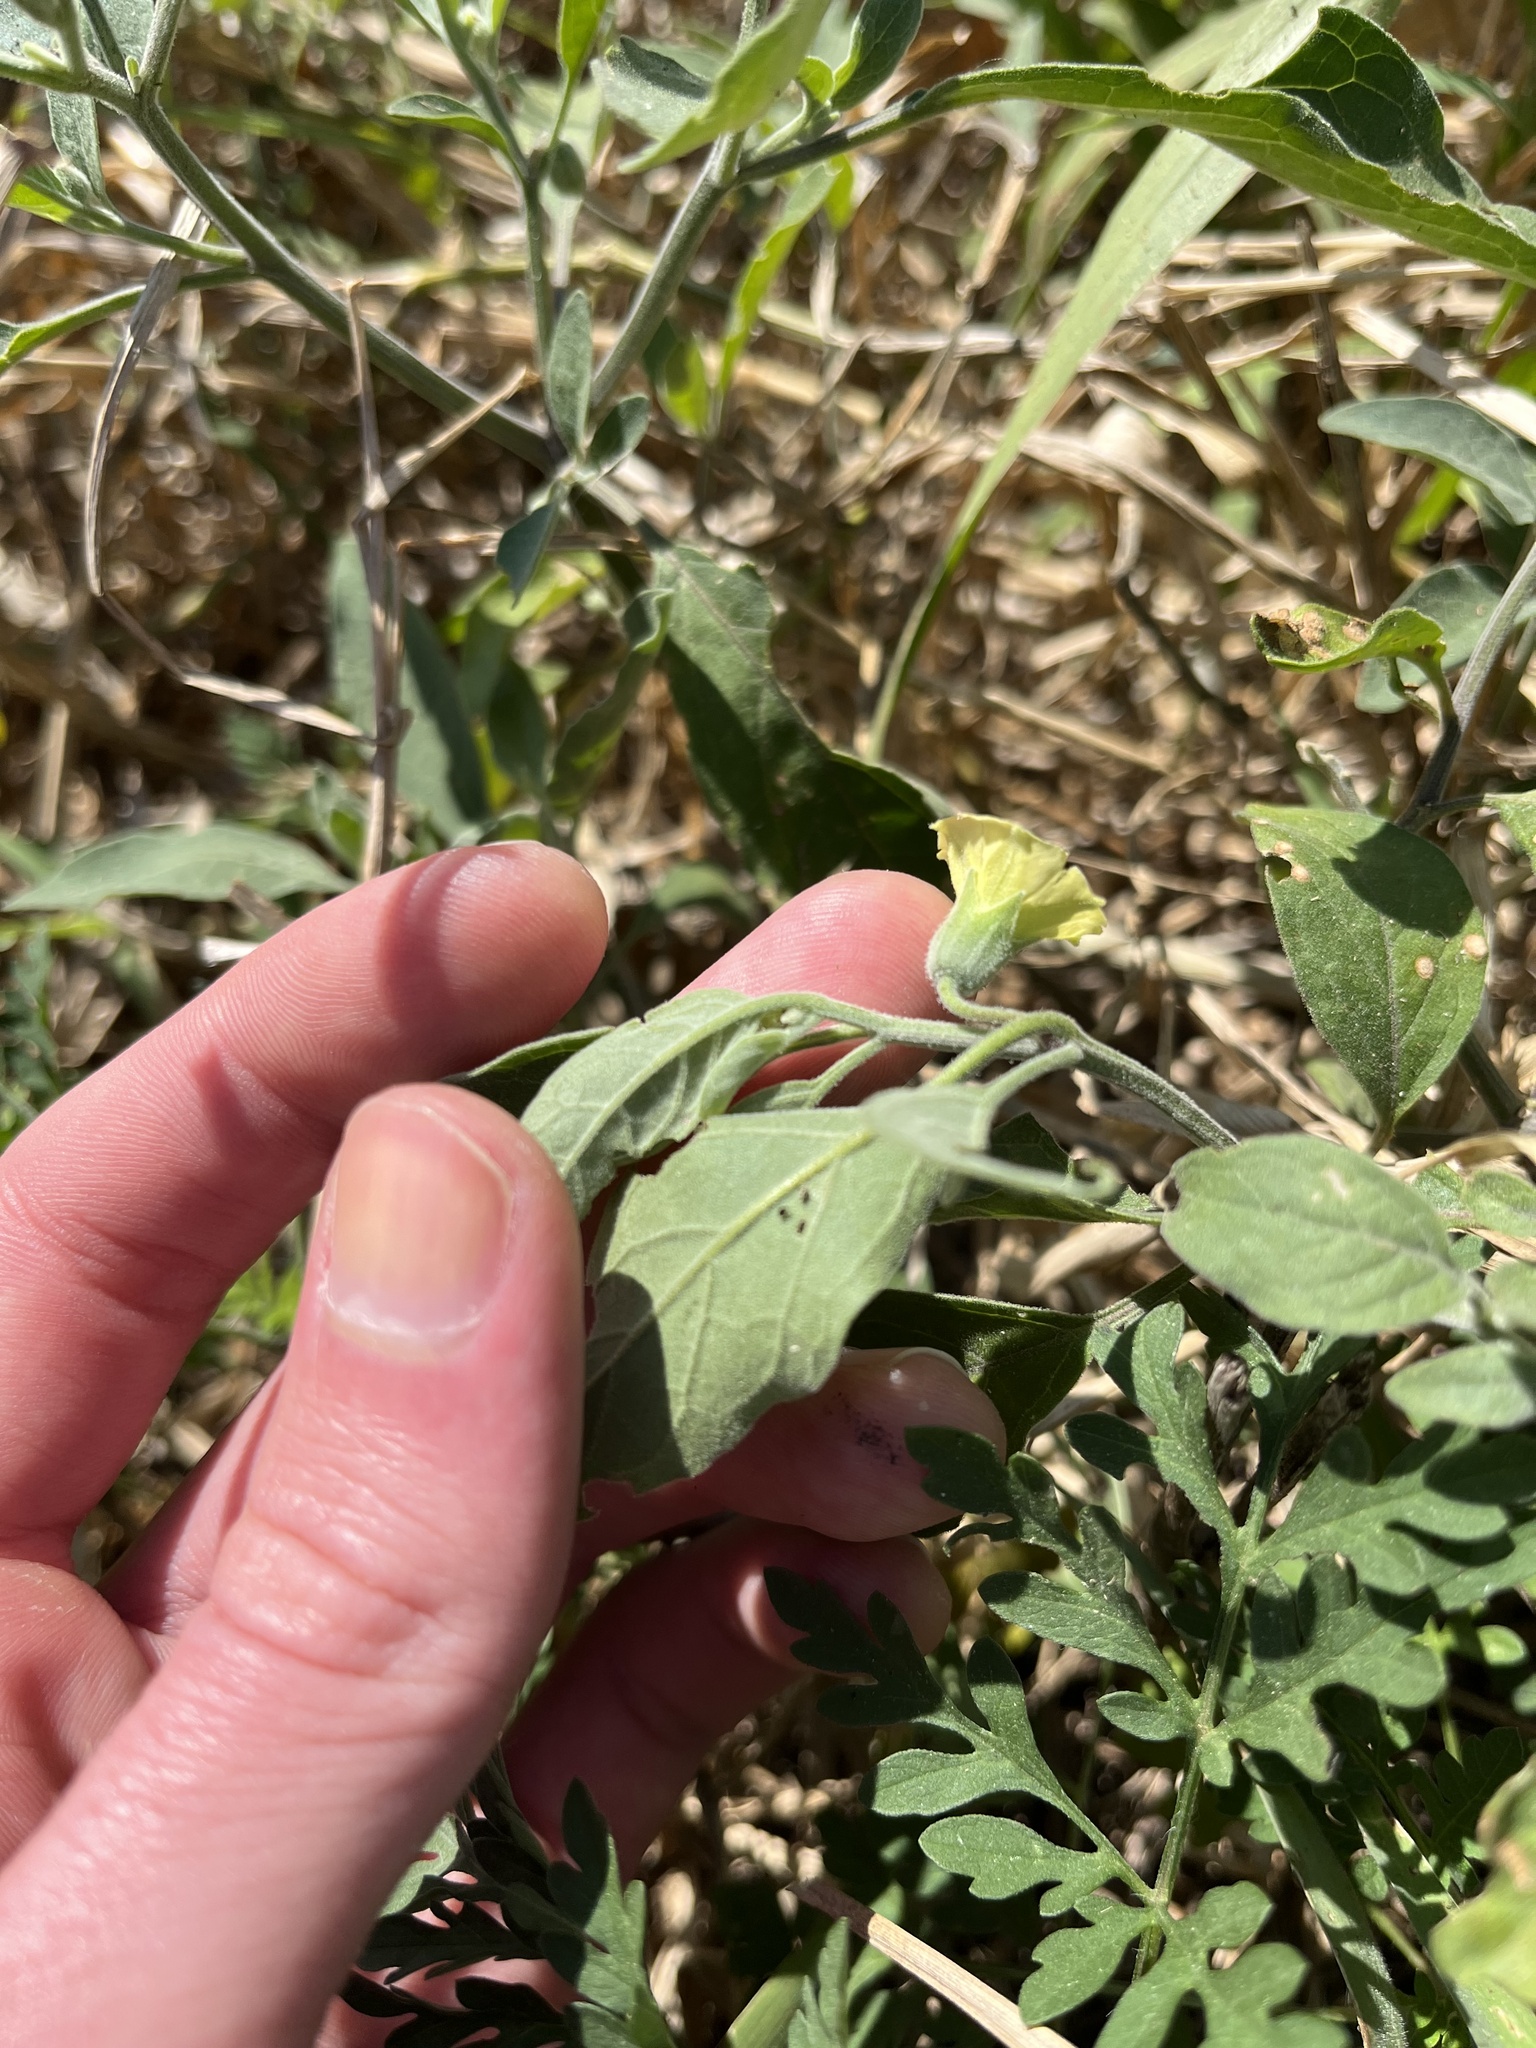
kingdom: Plantae
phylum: Tracheophyta
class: Magnoliopsida
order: Solanales
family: Solanaceae
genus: Physalis
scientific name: Physalis walteri
